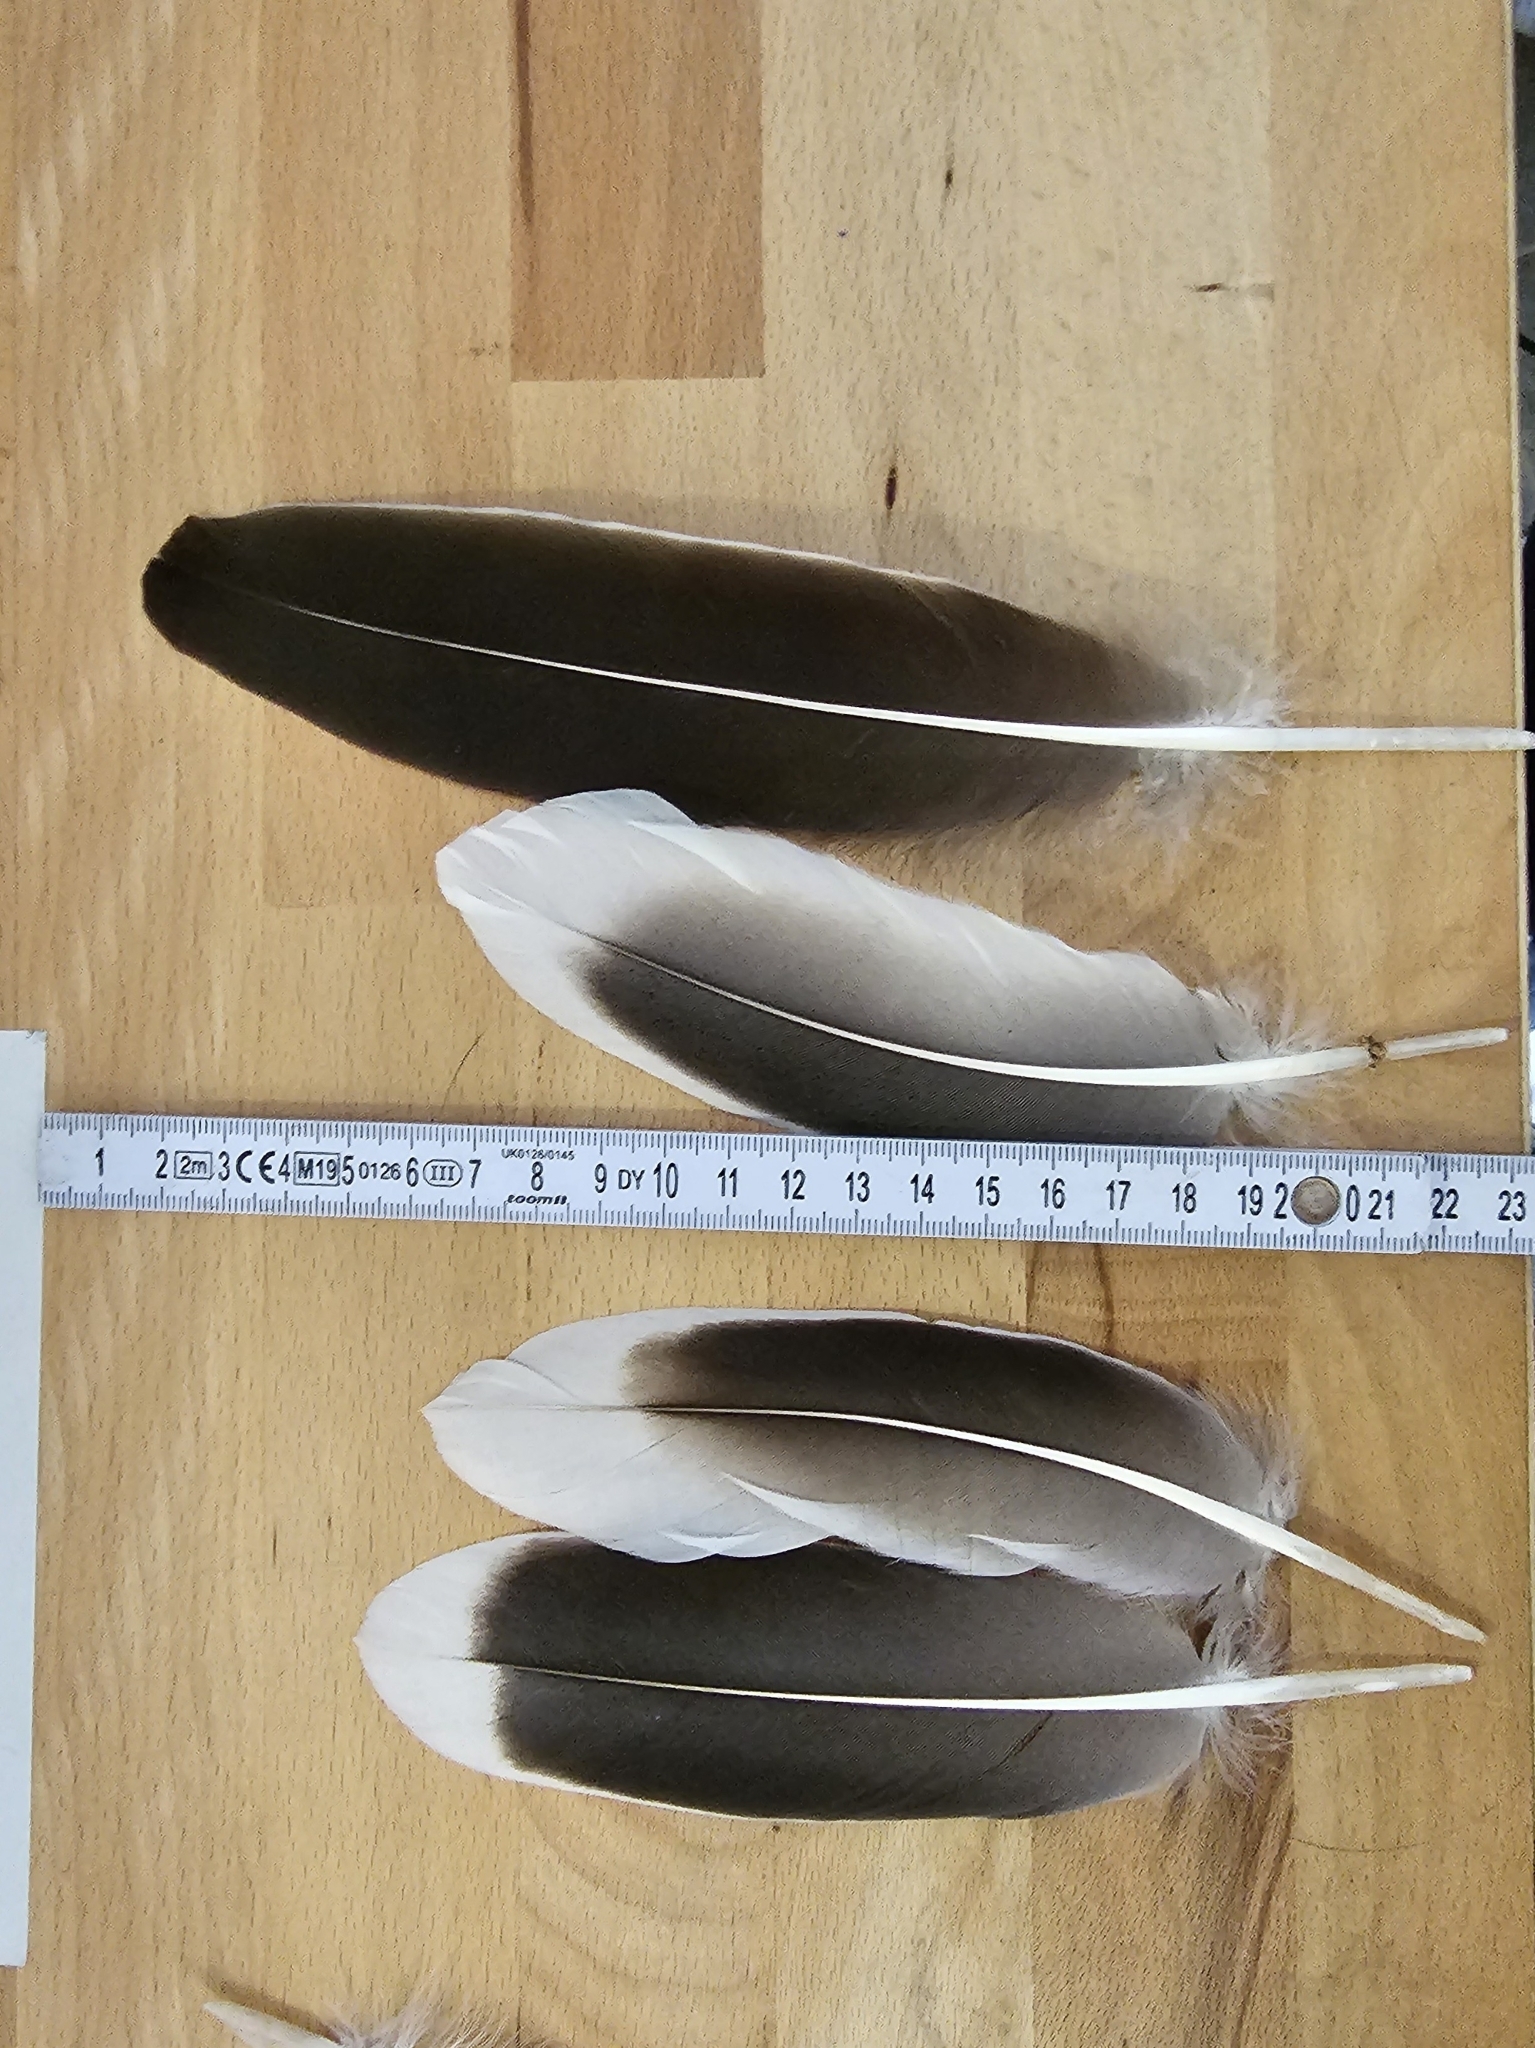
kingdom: Animalia
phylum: Chordata
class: Aves
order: Anseriformes
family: Anatidae
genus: Anser
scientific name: Anser anser
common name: Greylag goose
